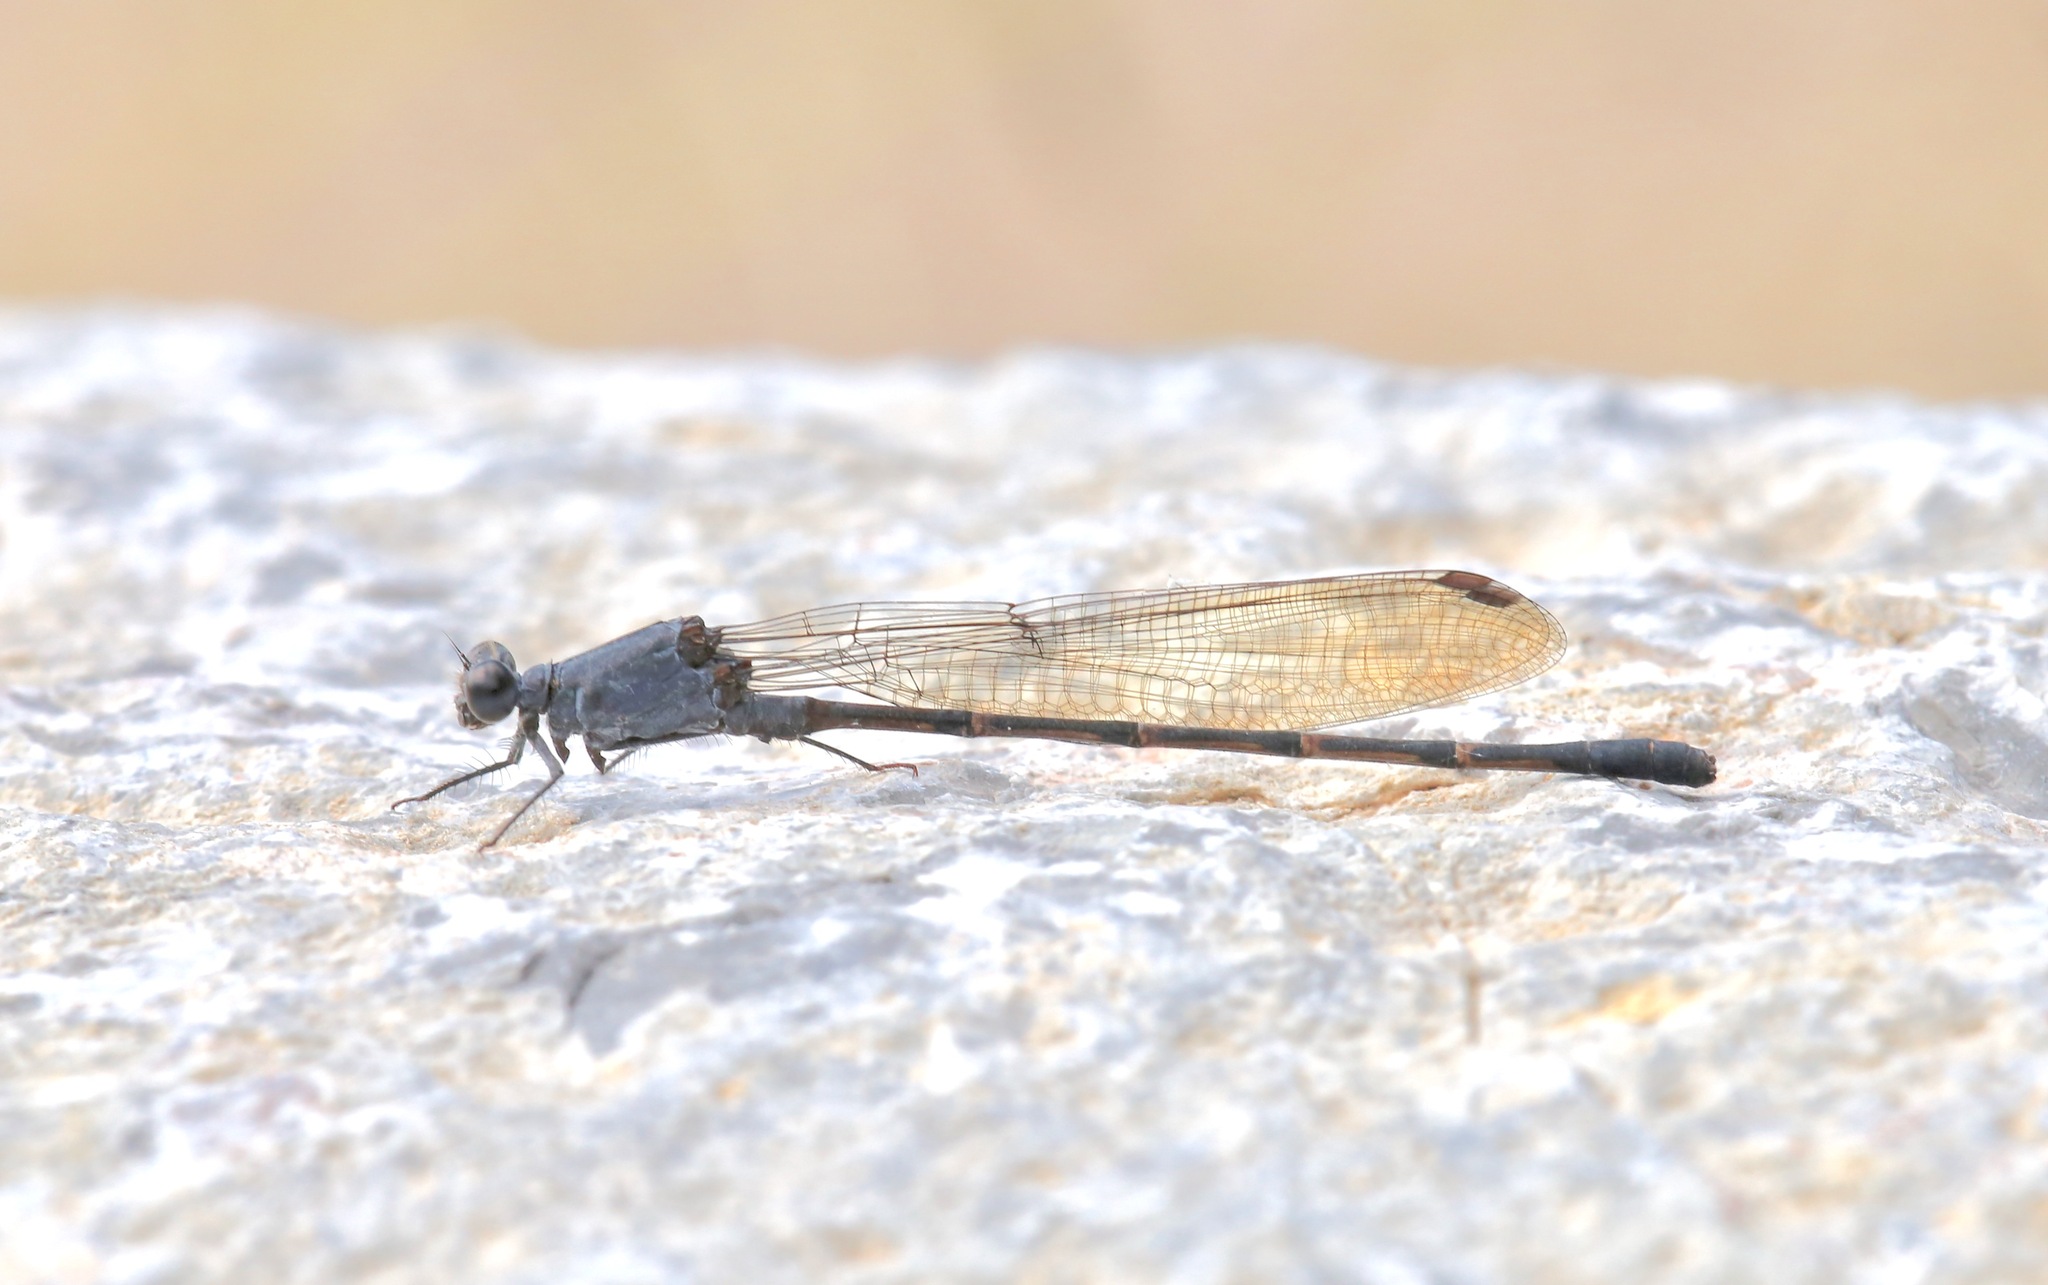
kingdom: Animalia
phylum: Arthropoda
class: Insecta
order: Odonata
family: Coenagrionidae
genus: Argia
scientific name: Argia lugens
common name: Sooty dancer
